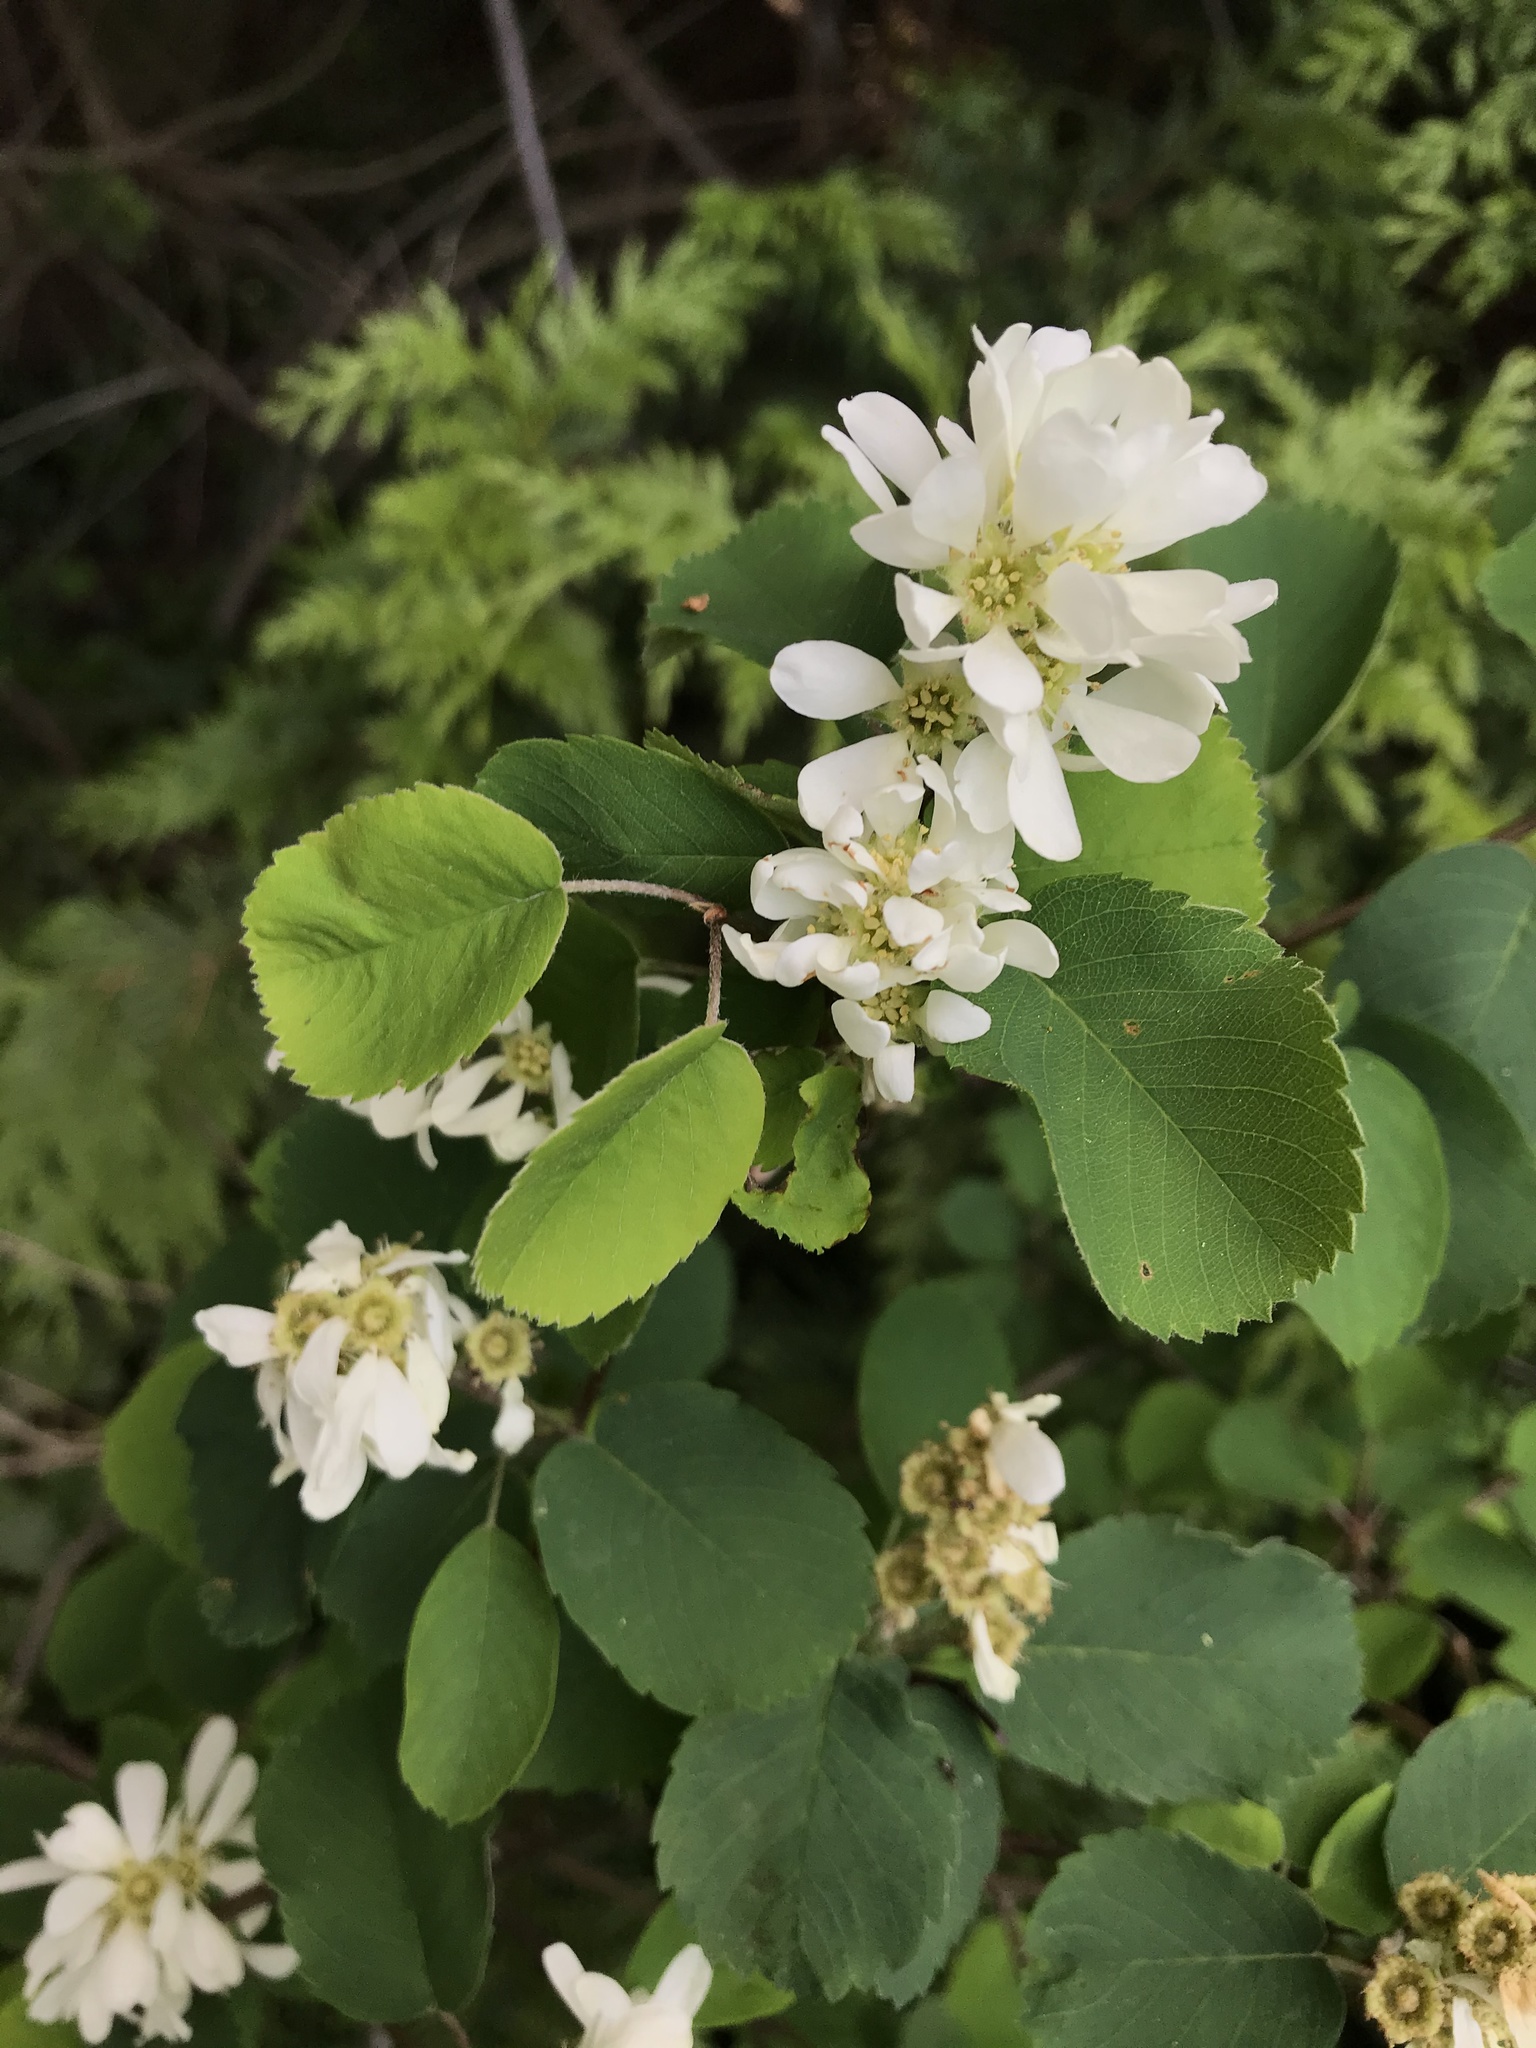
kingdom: Plantae
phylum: Tracheophyta
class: Magnoliopsida
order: Rosales
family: Rosaceae
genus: Amelanchier
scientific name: Amelanchier alnifolia
